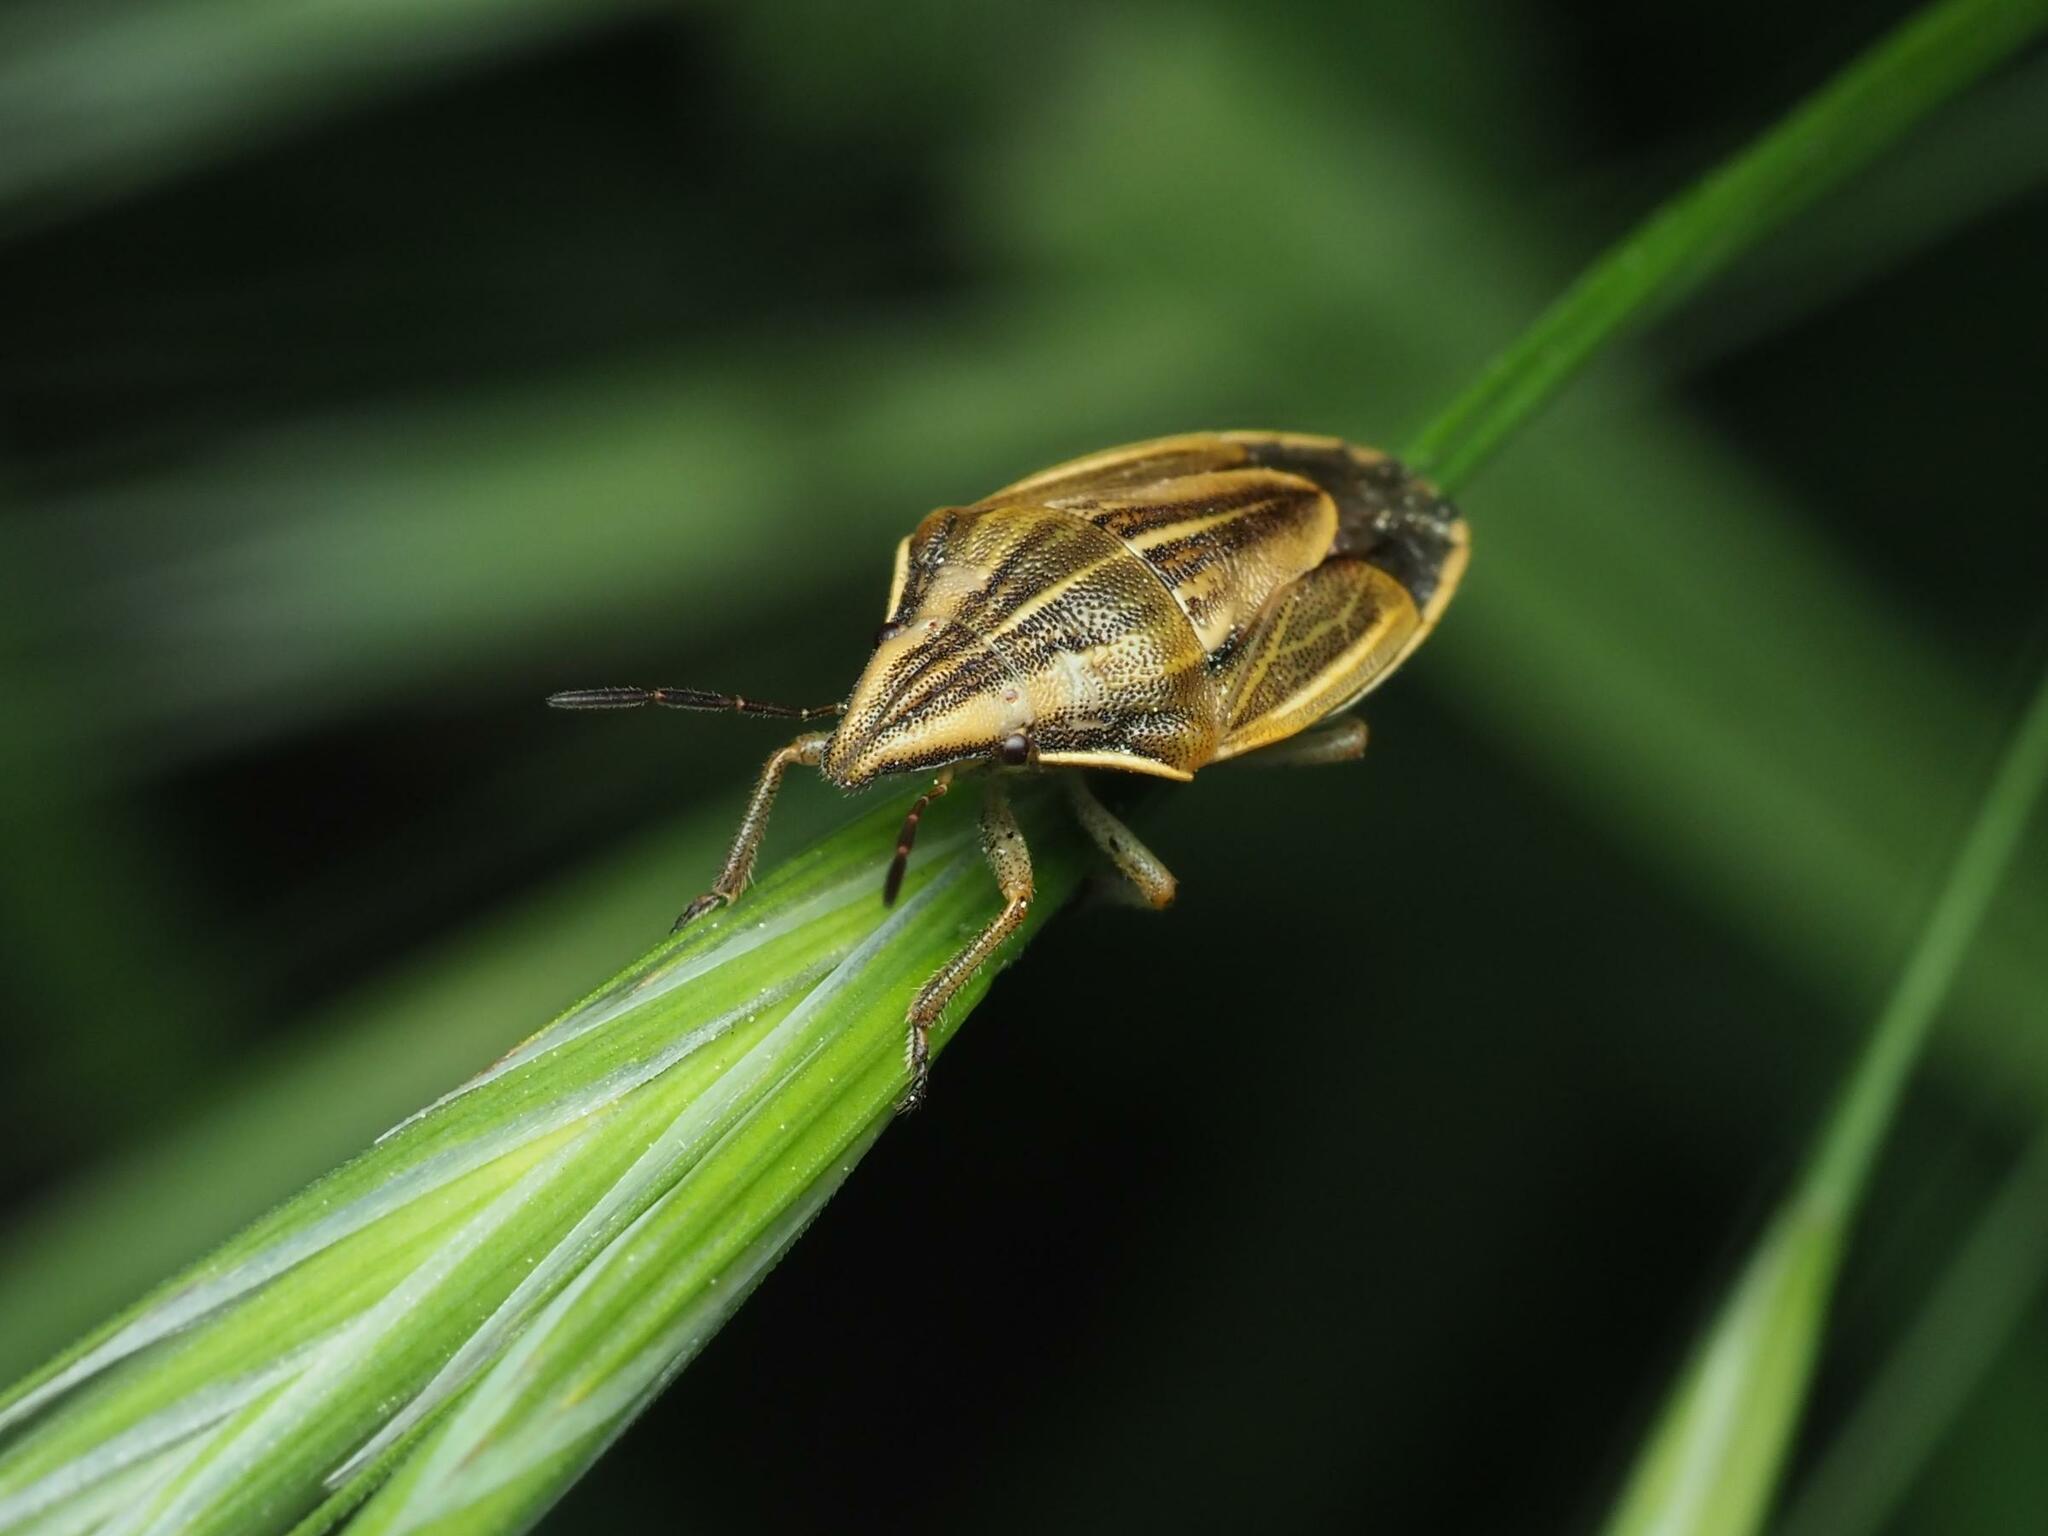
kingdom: Animalia
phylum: Arthropoda
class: Insecta
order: Hemiptera
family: Pentatomidae
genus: Aelia
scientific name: Aelia acuminata
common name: Bishop's mitre
